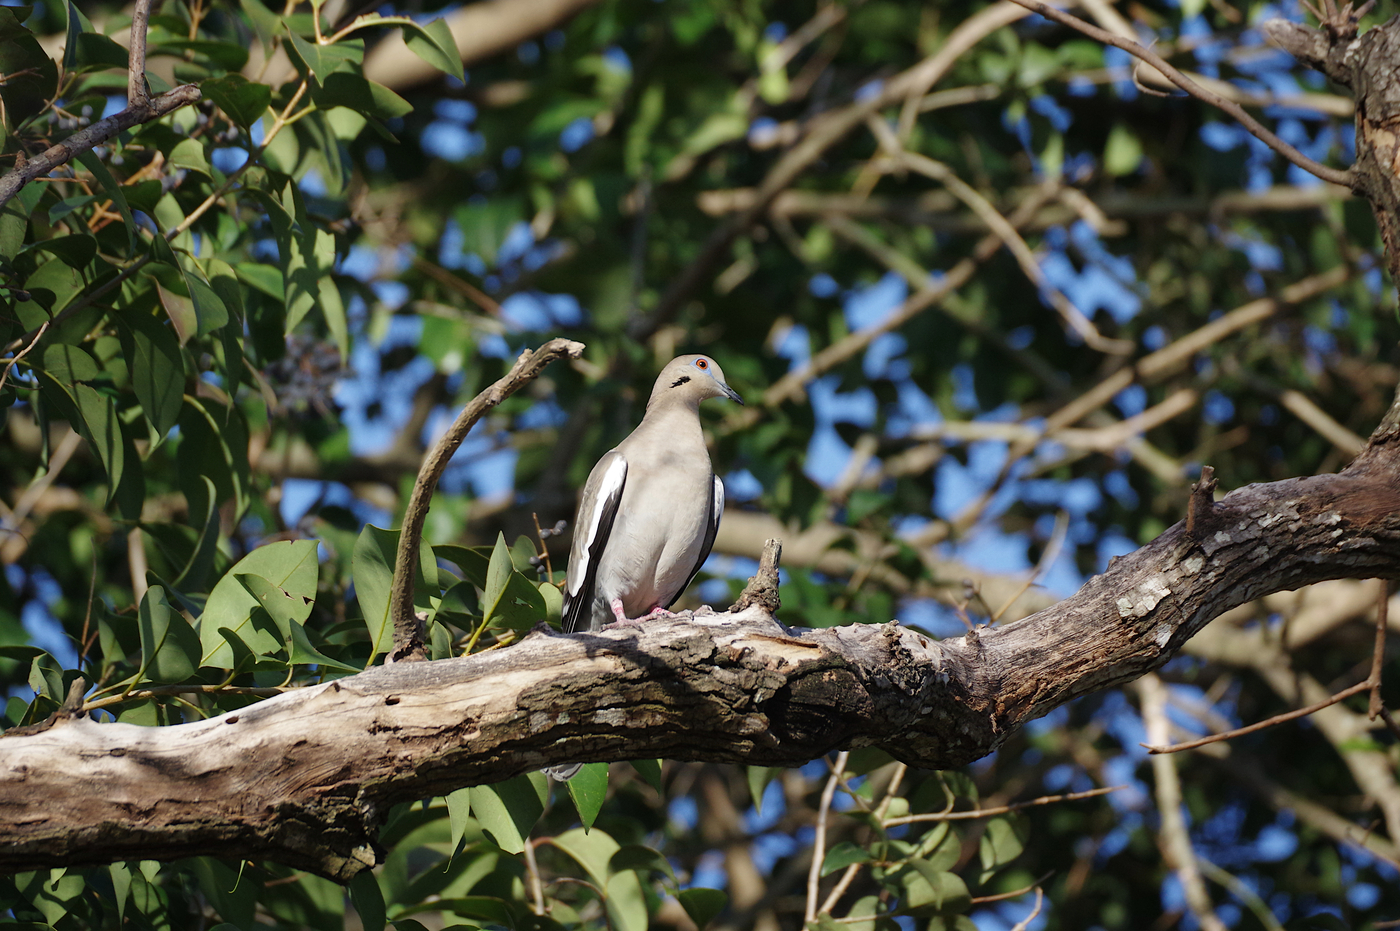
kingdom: Animalia
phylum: Chordata
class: Aves
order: Columbiformes
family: Columbidae
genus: Zenaida
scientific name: Zenaida asiatica
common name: White-winged dove
